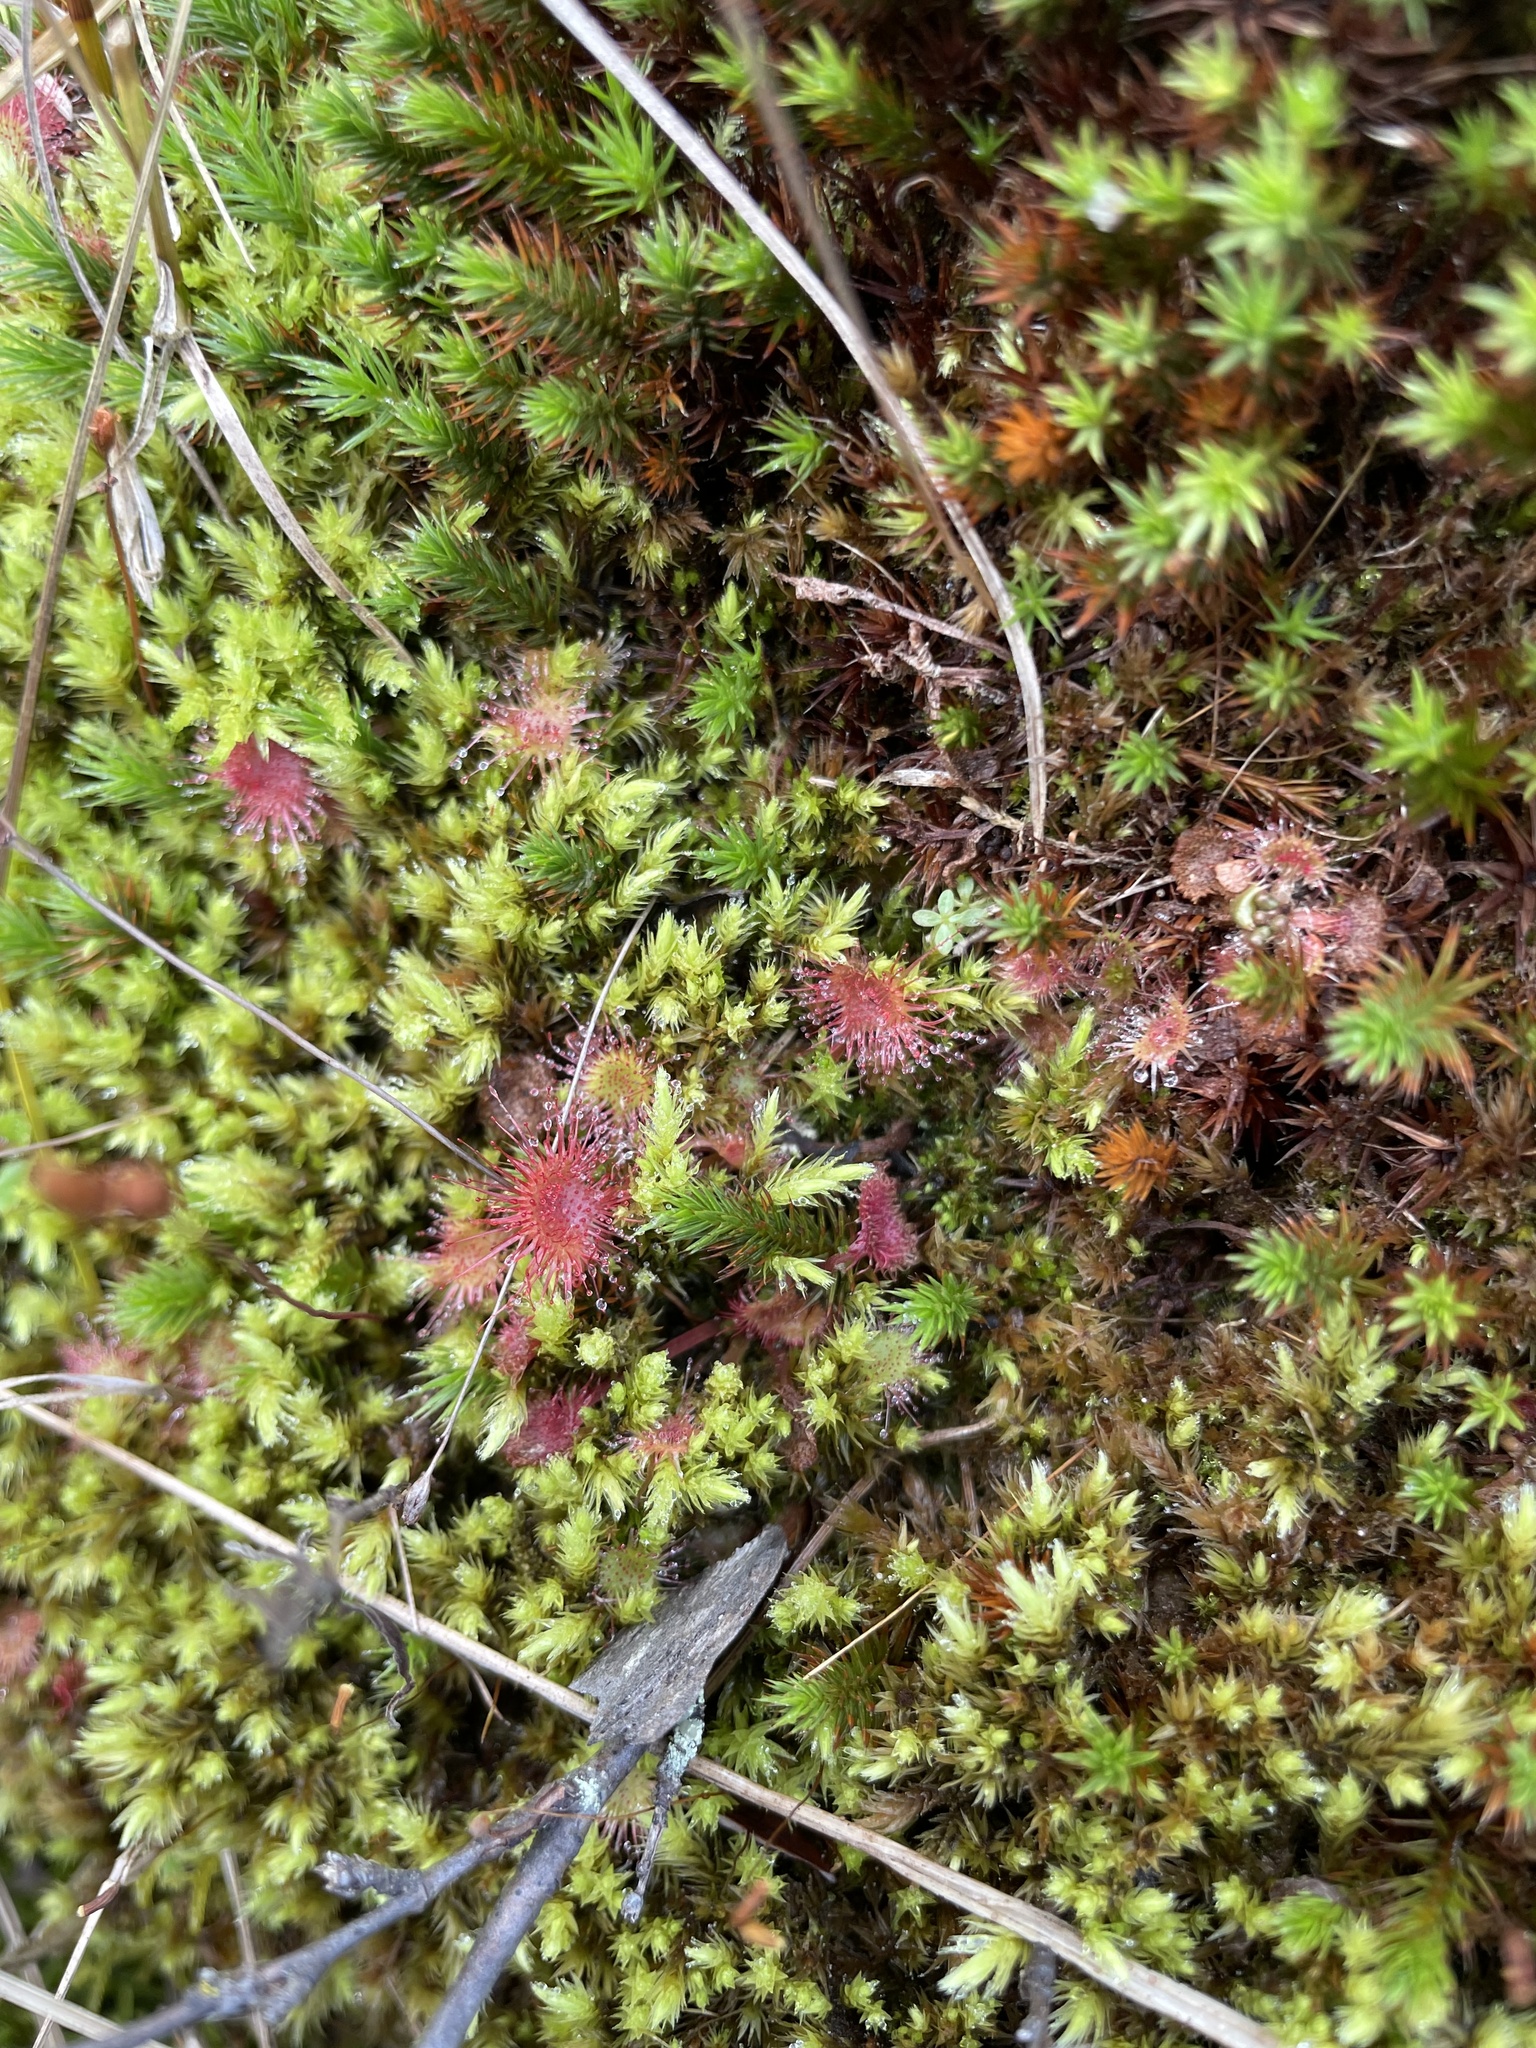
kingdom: Plantae
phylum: Tracheophyta
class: Magnoliopsida
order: Caryophyllales
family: Droseraceae
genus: Drosera
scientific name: Drosera rotundifolia
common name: Round-leaved sundew
